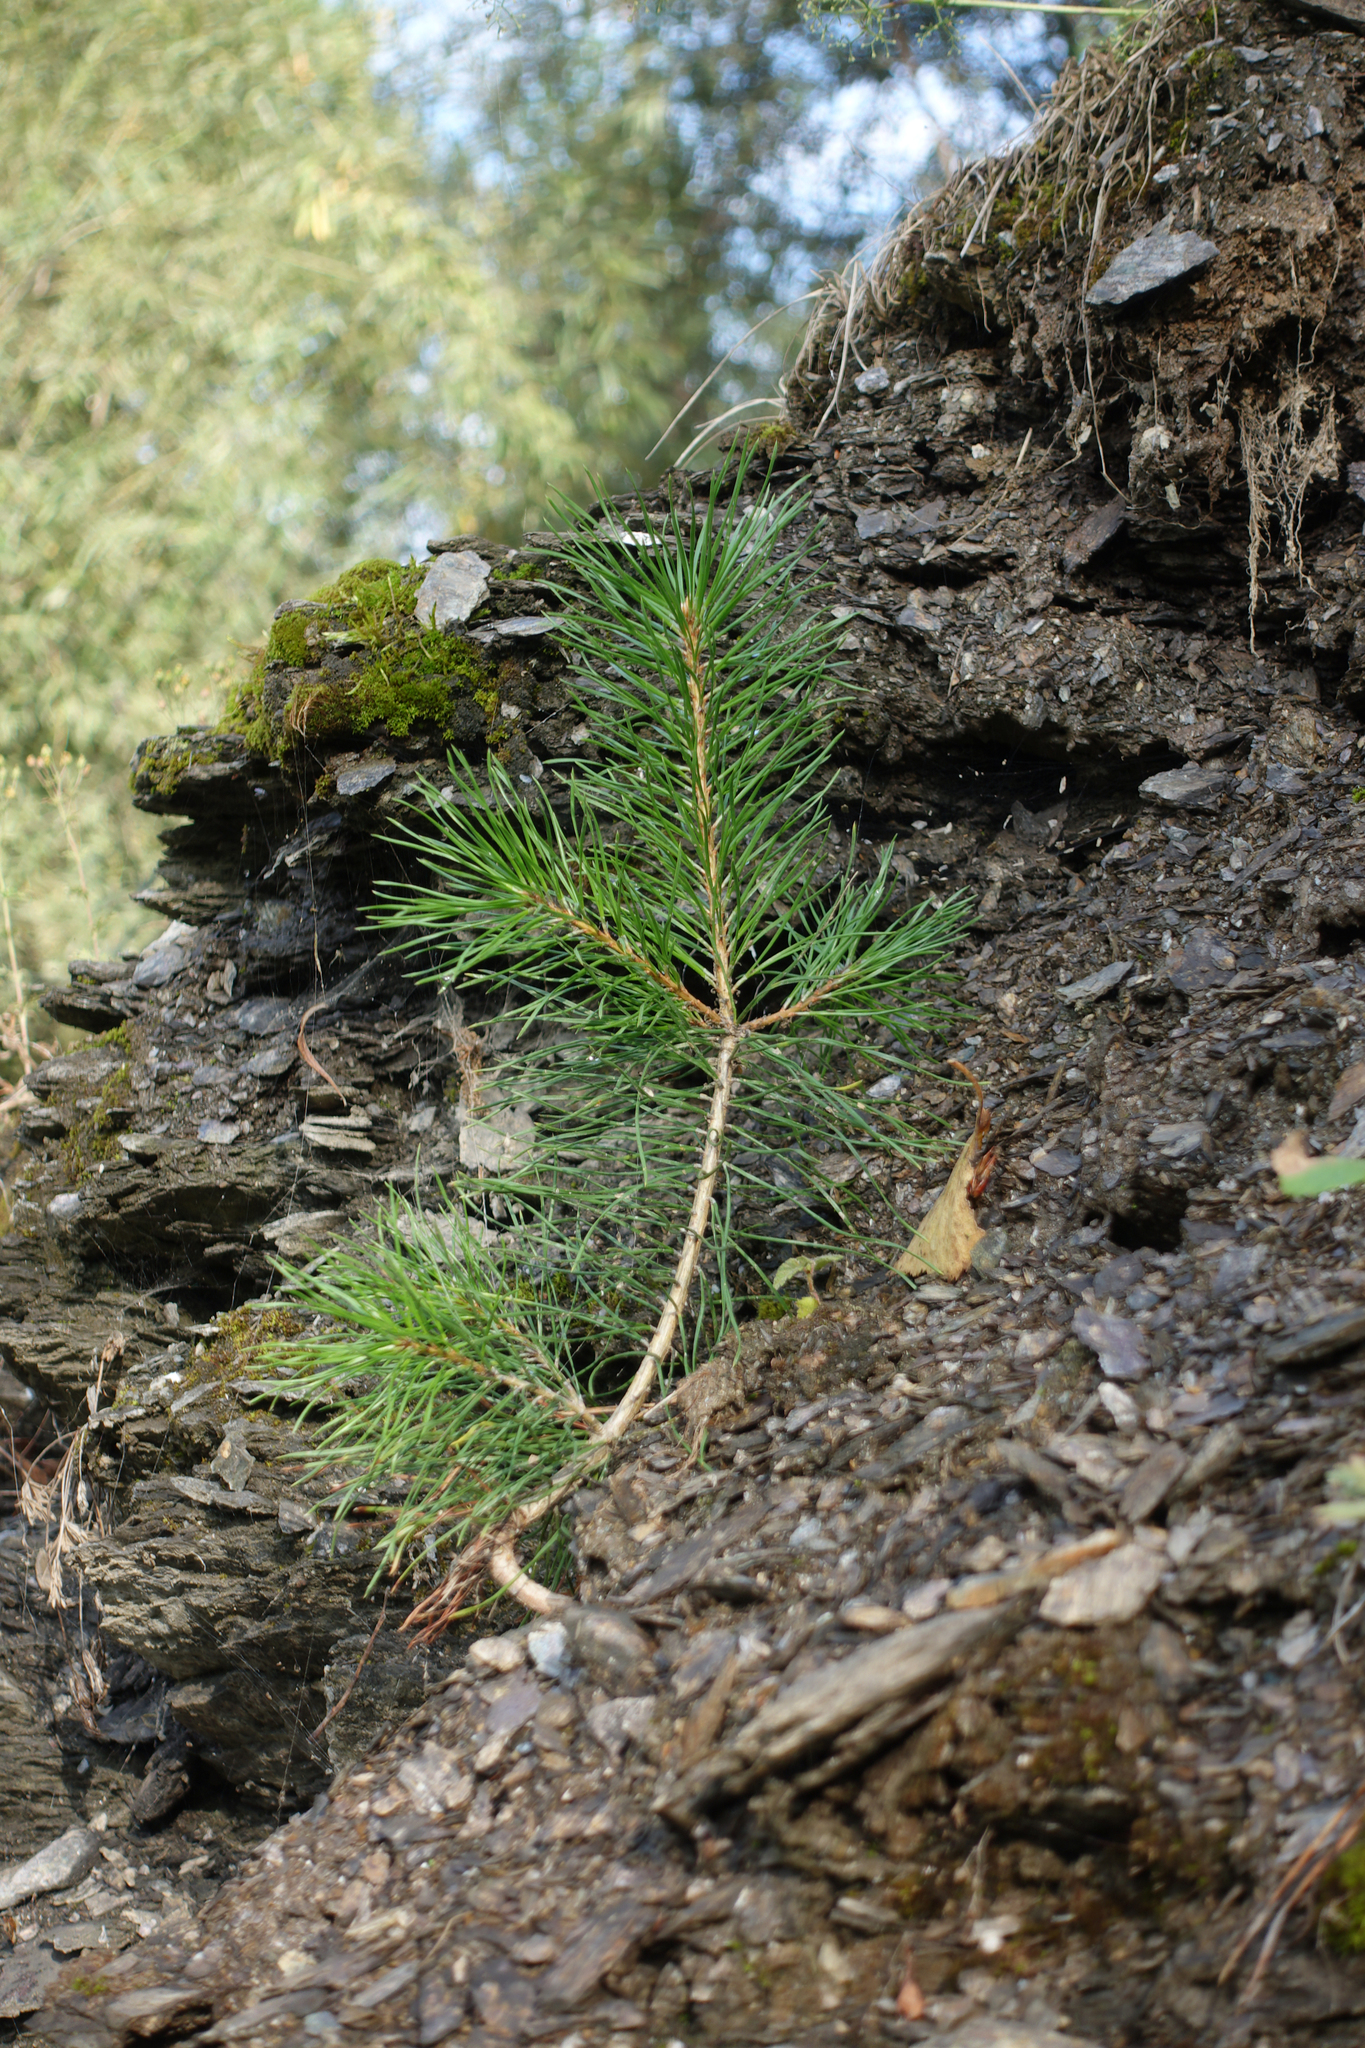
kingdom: Plantae
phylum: Tracheophyta
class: Pinopsida
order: Pinales
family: Pinaceae
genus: Pinus
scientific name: Pinus sylvestris
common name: Scots pine
